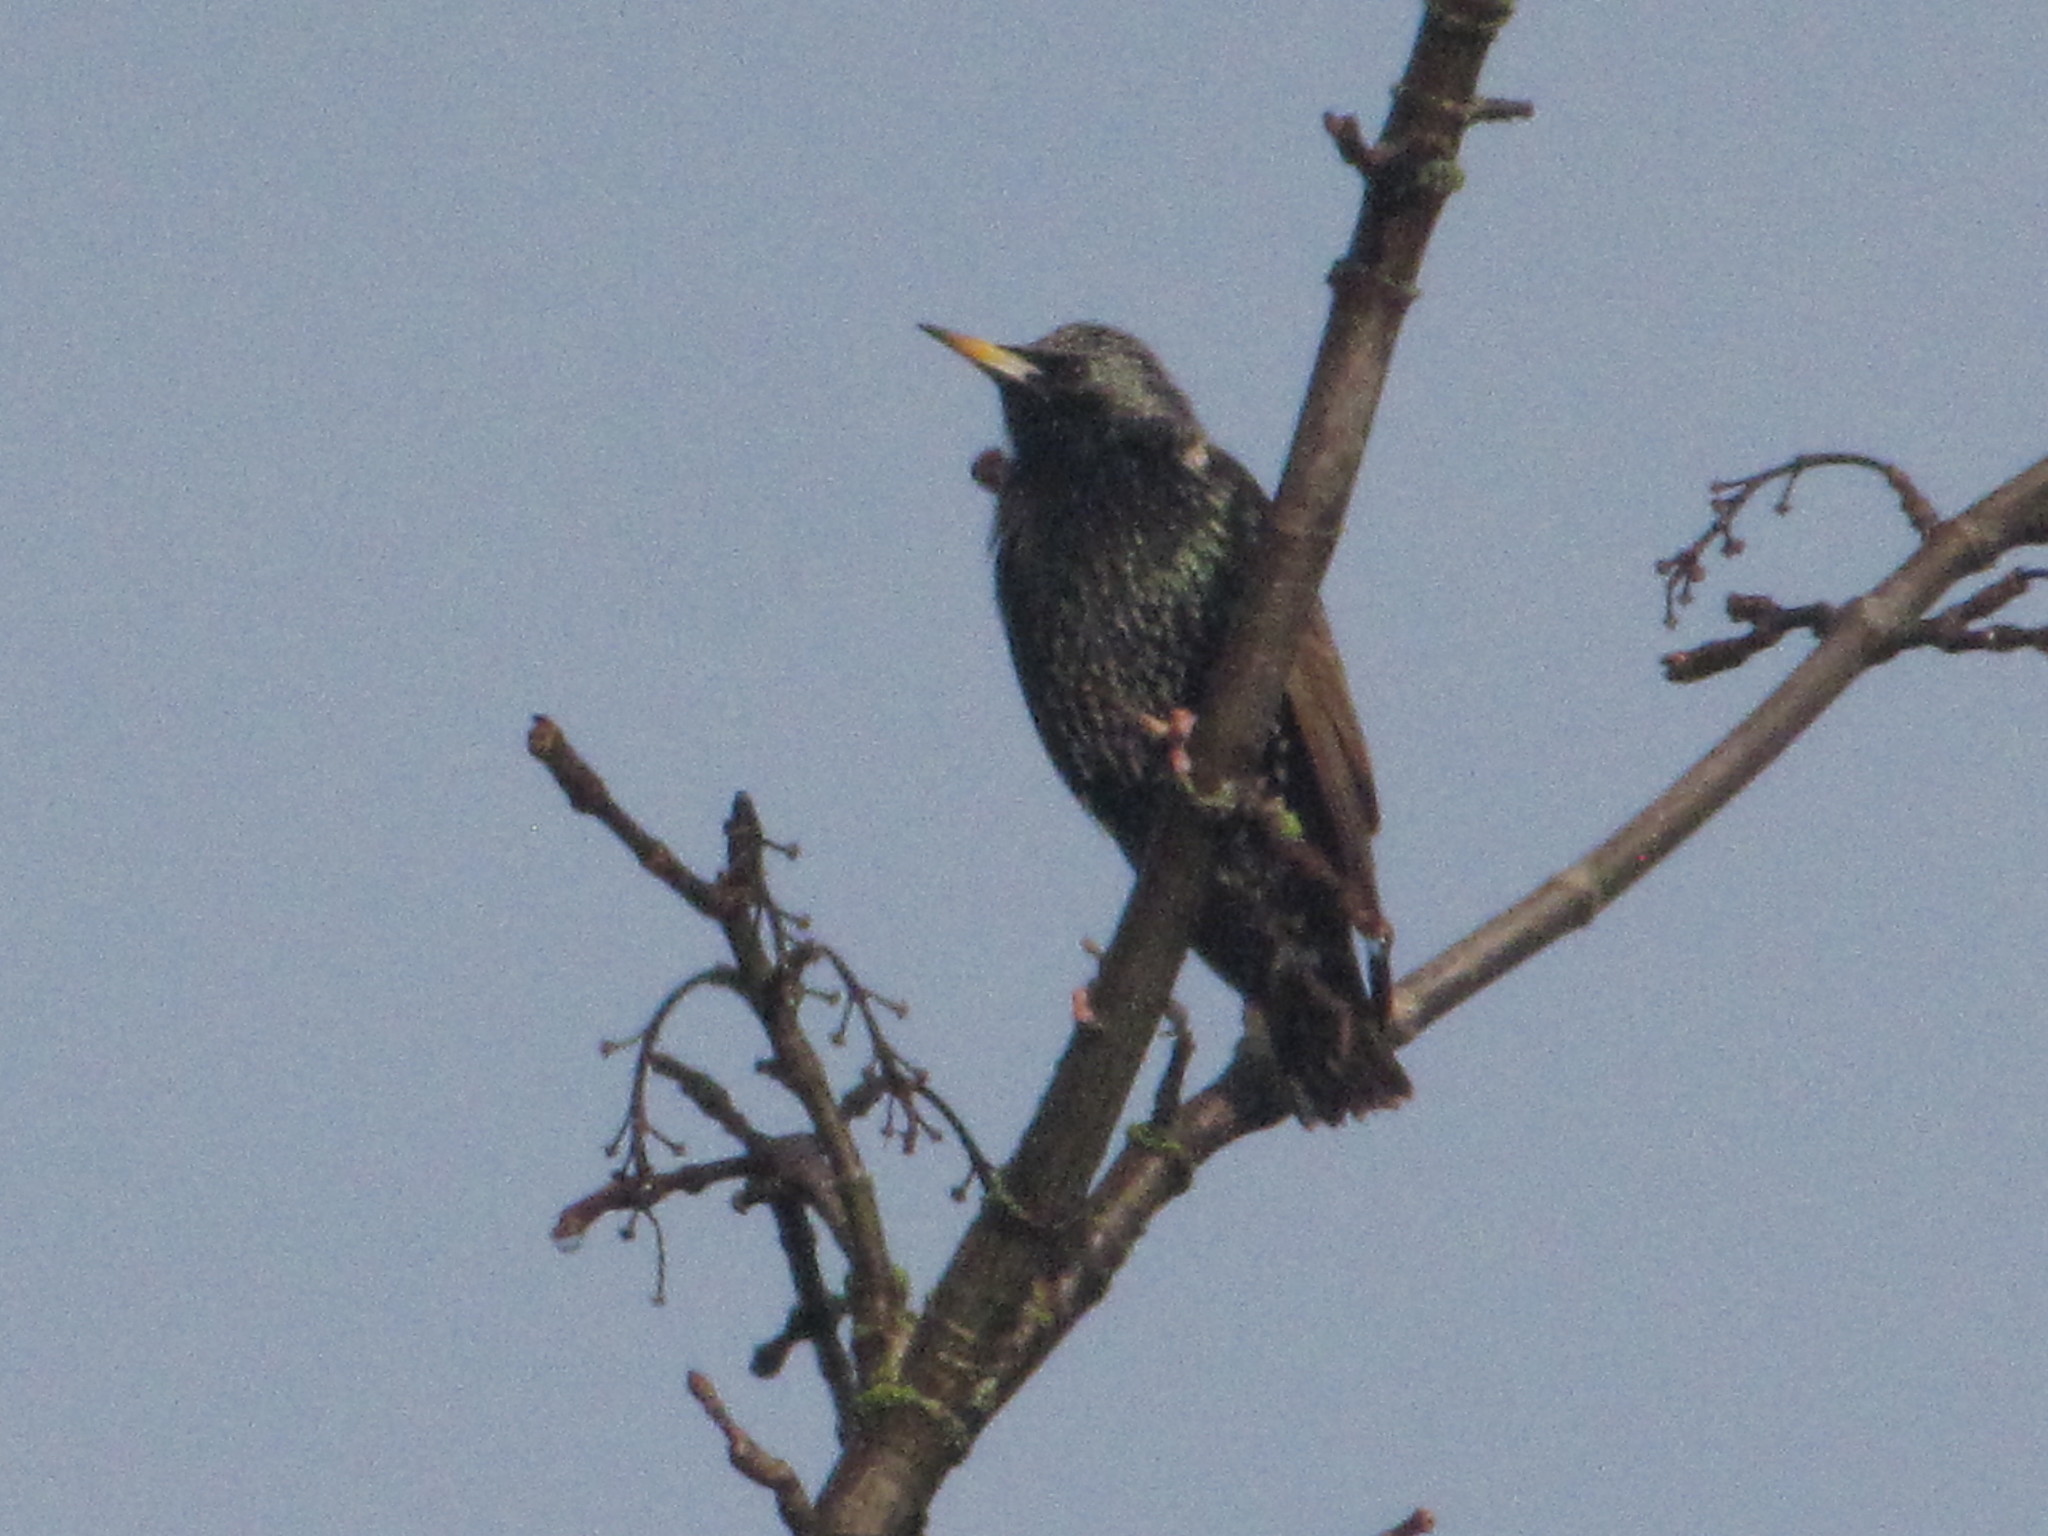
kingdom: Animalia
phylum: Chordata
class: Aves
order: Passeriformes
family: Sturnidae
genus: Sturnus
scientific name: Sturnus vulgaris
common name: Common starling
